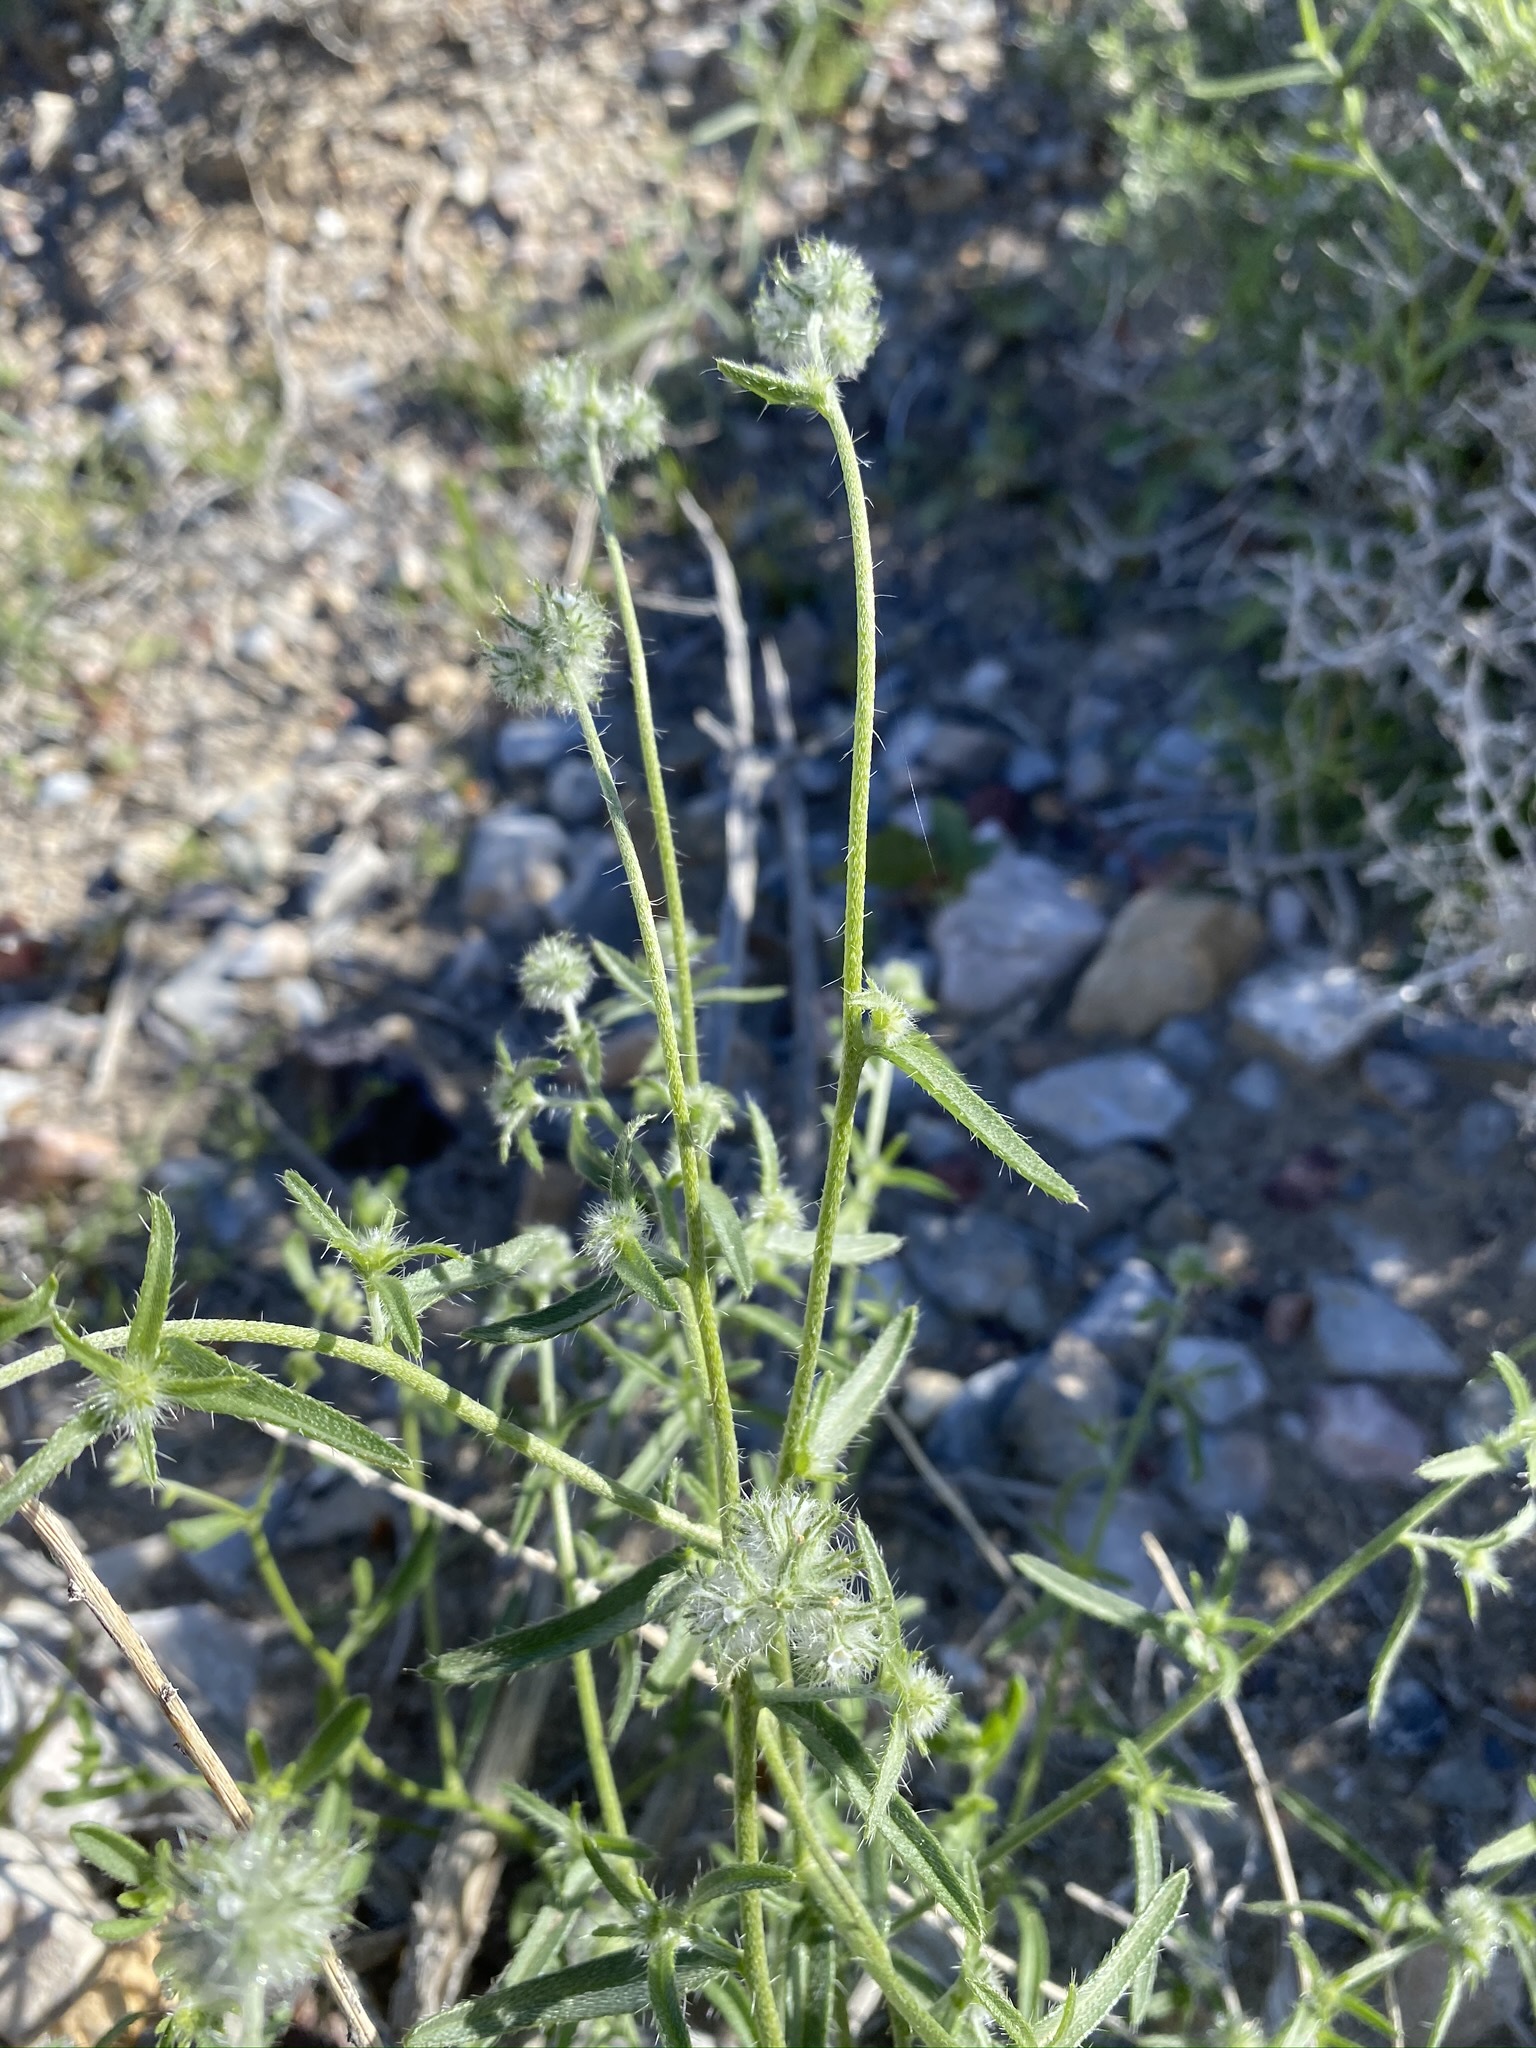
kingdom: Plantae
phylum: Tracheophyta
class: Magnoliopsida
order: Boraginales
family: Boraginaceae
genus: Cryptantha
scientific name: Cryptantha nevadensis
